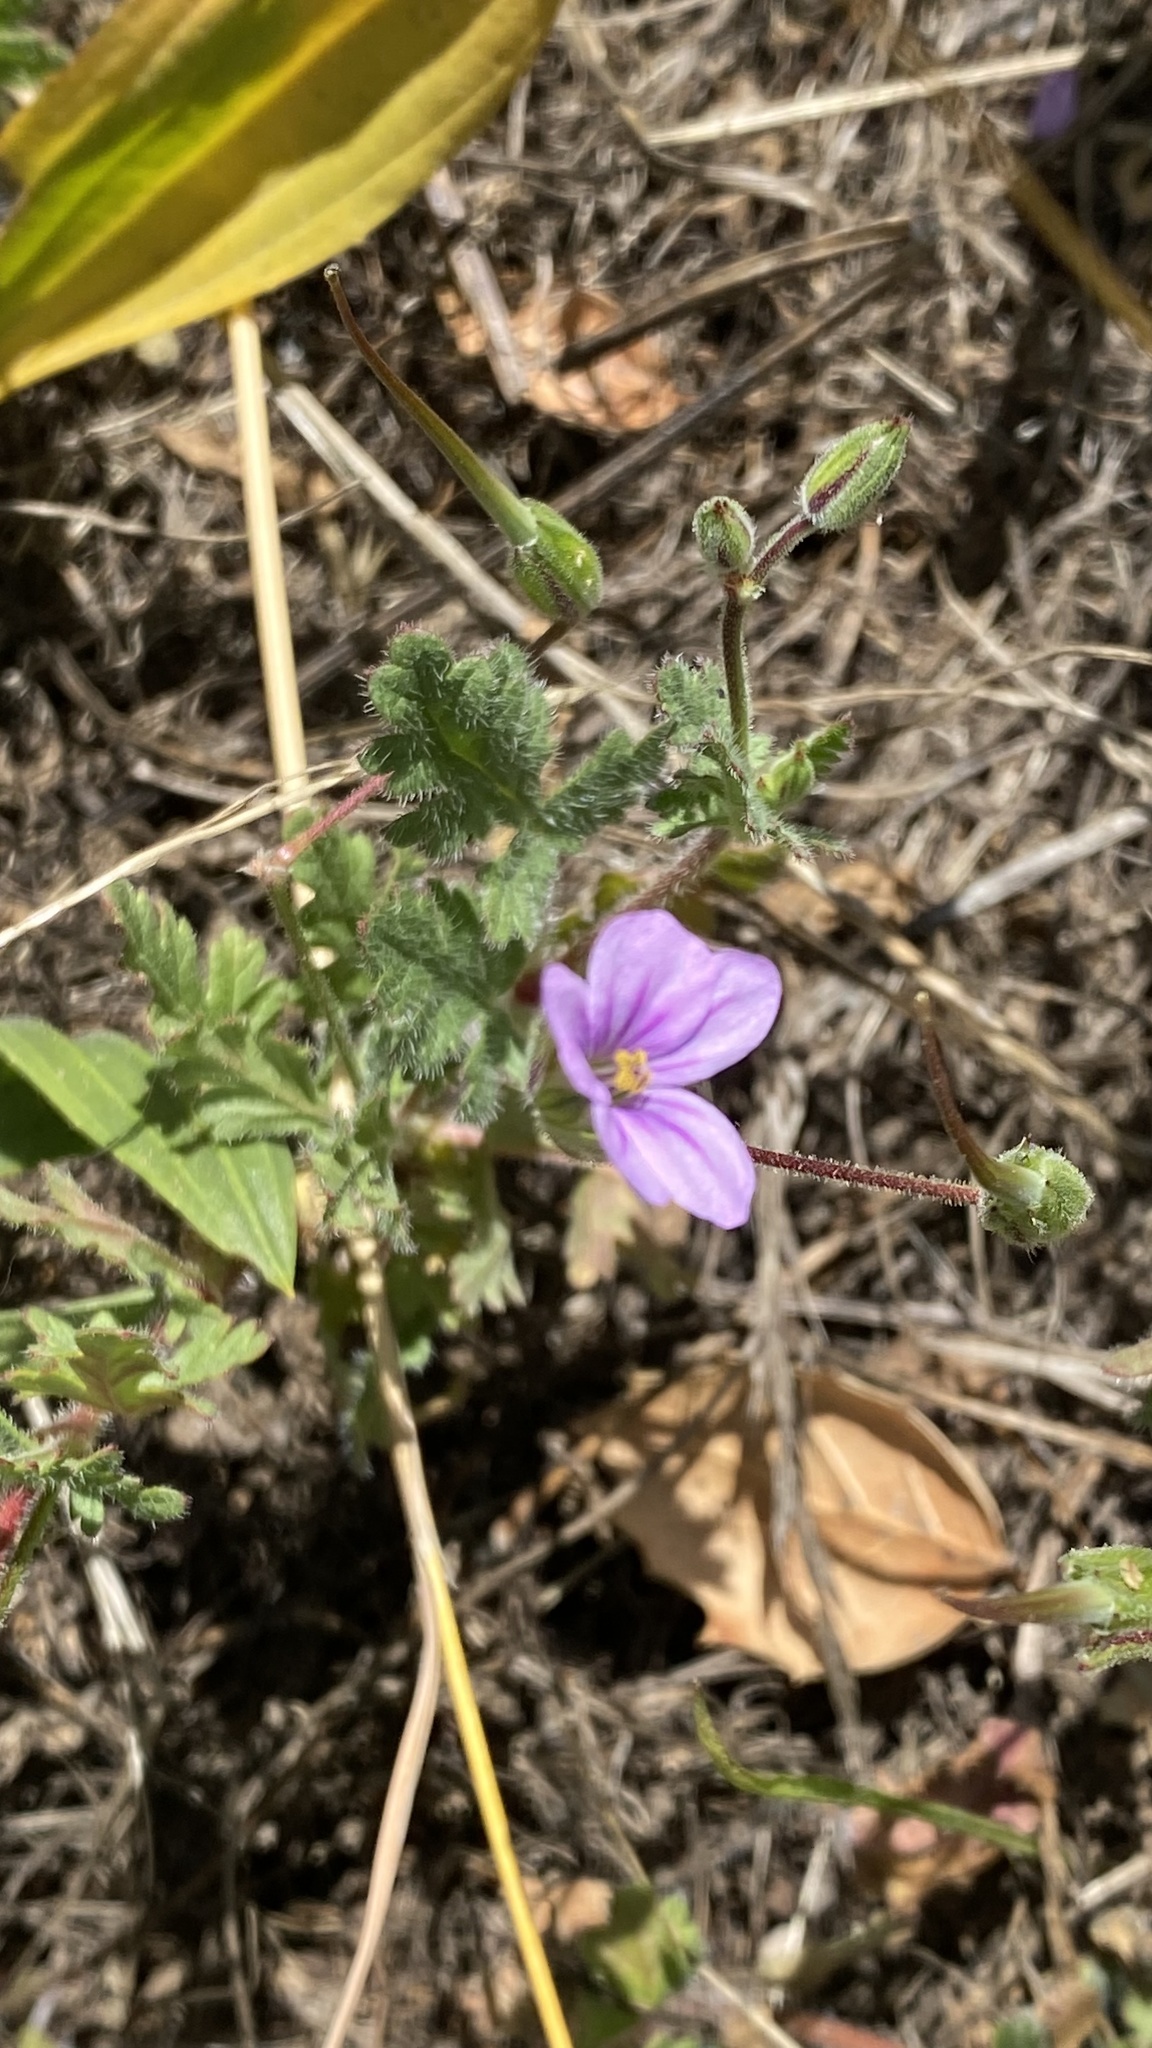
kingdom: Plantae
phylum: Tracheophyta
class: Magnoliopsida
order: Geraniales
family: Geraniaceae
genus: Erodium
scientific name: Erodium botrys
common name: Mediterranean stork's-bill
